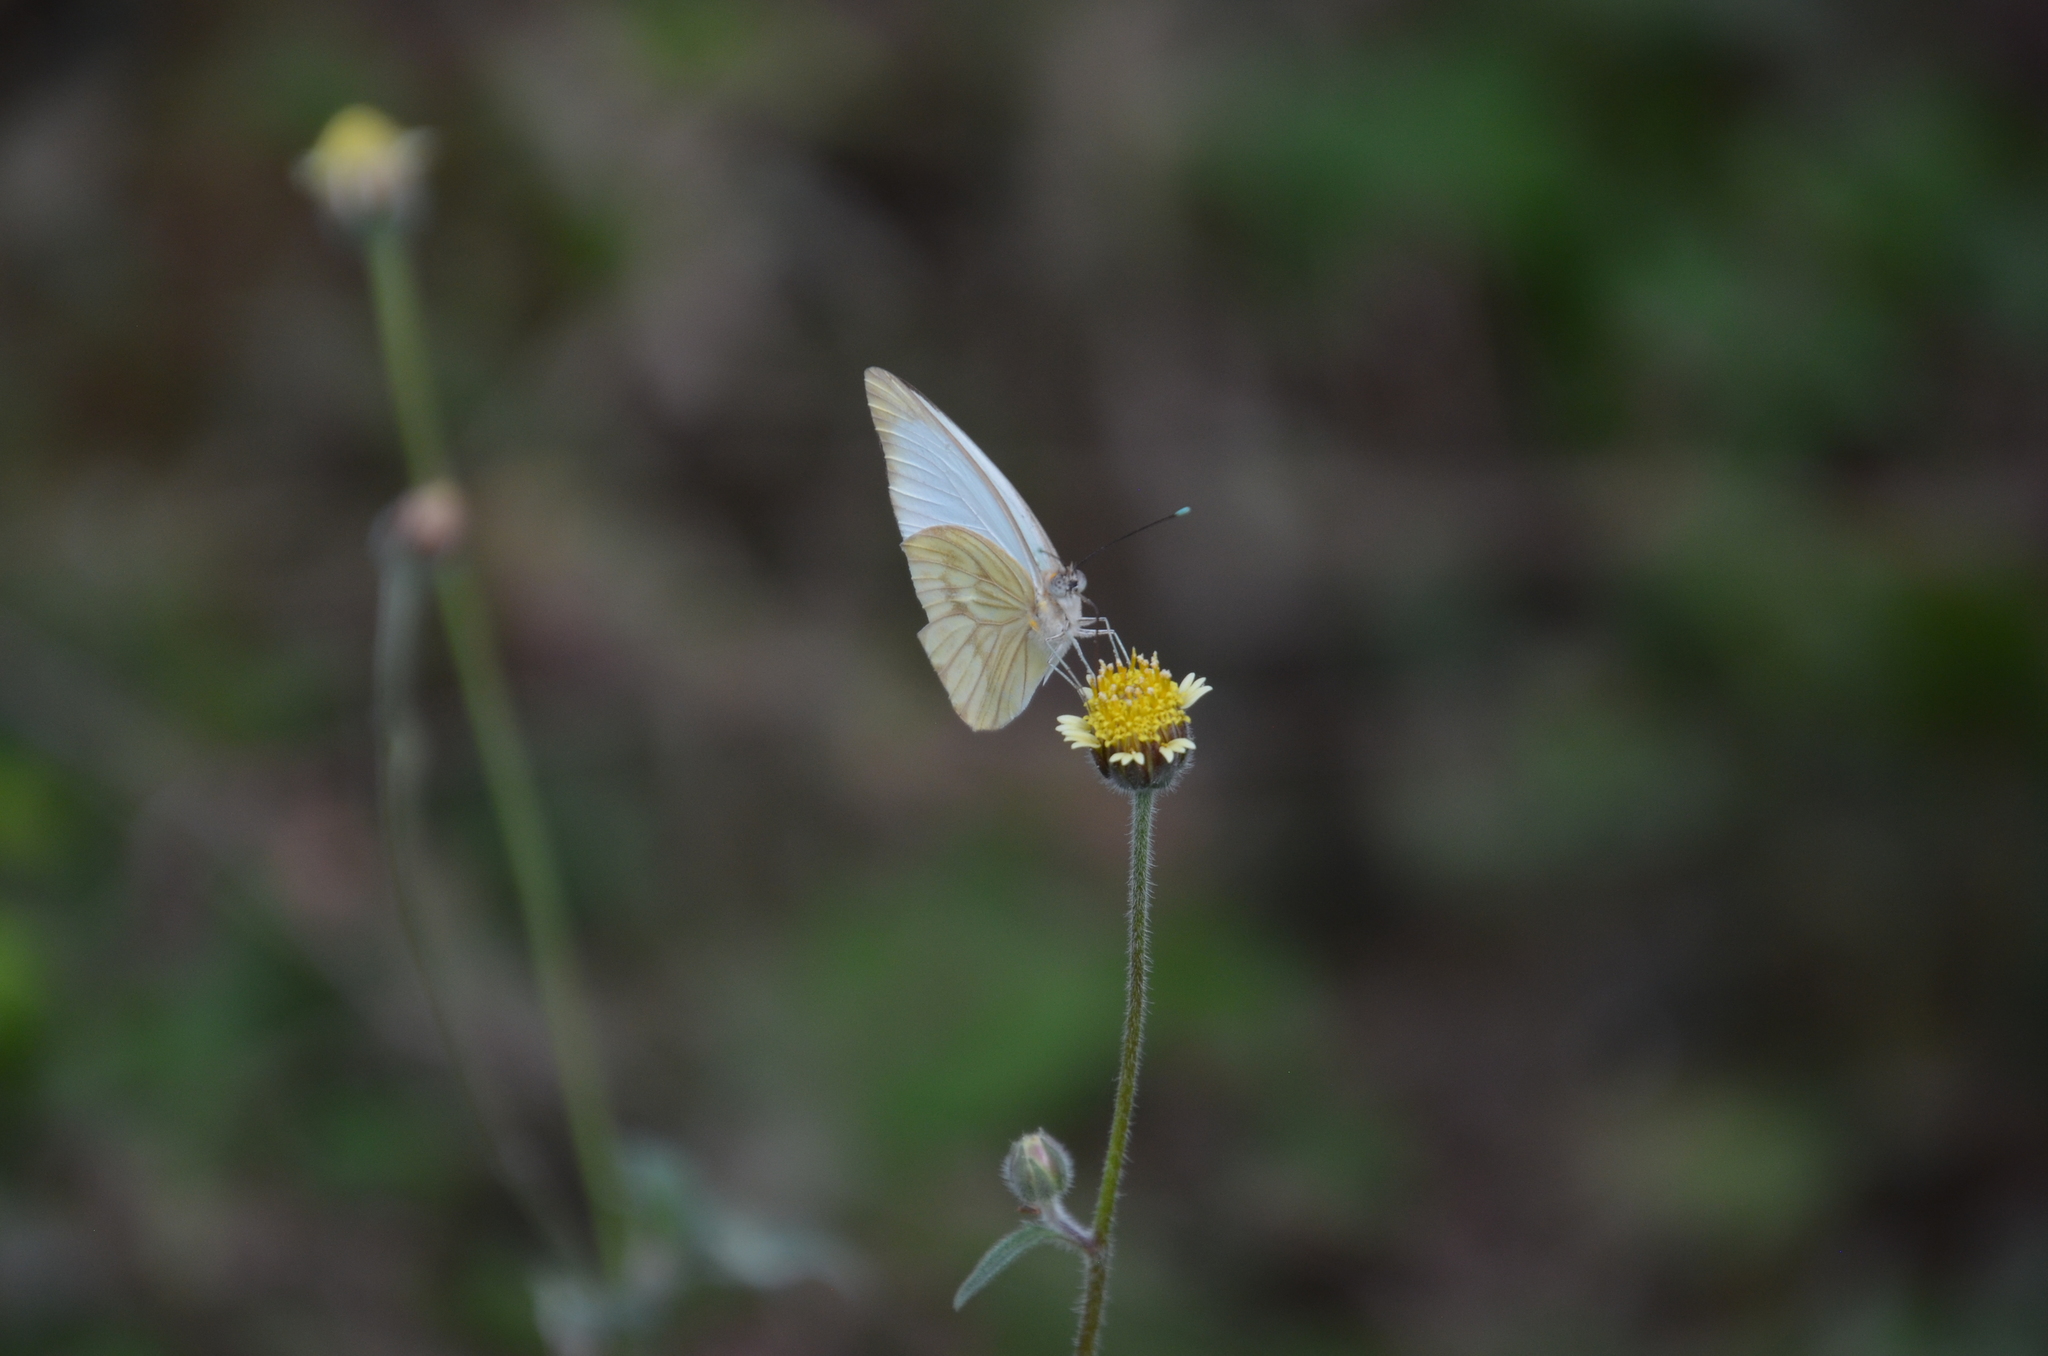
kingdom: Animalia
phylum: Arthropoda
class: Insecta
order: Lepidoptera
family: Pieridae
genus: Ascia
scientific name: Ascia monuste
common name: Great southern white
